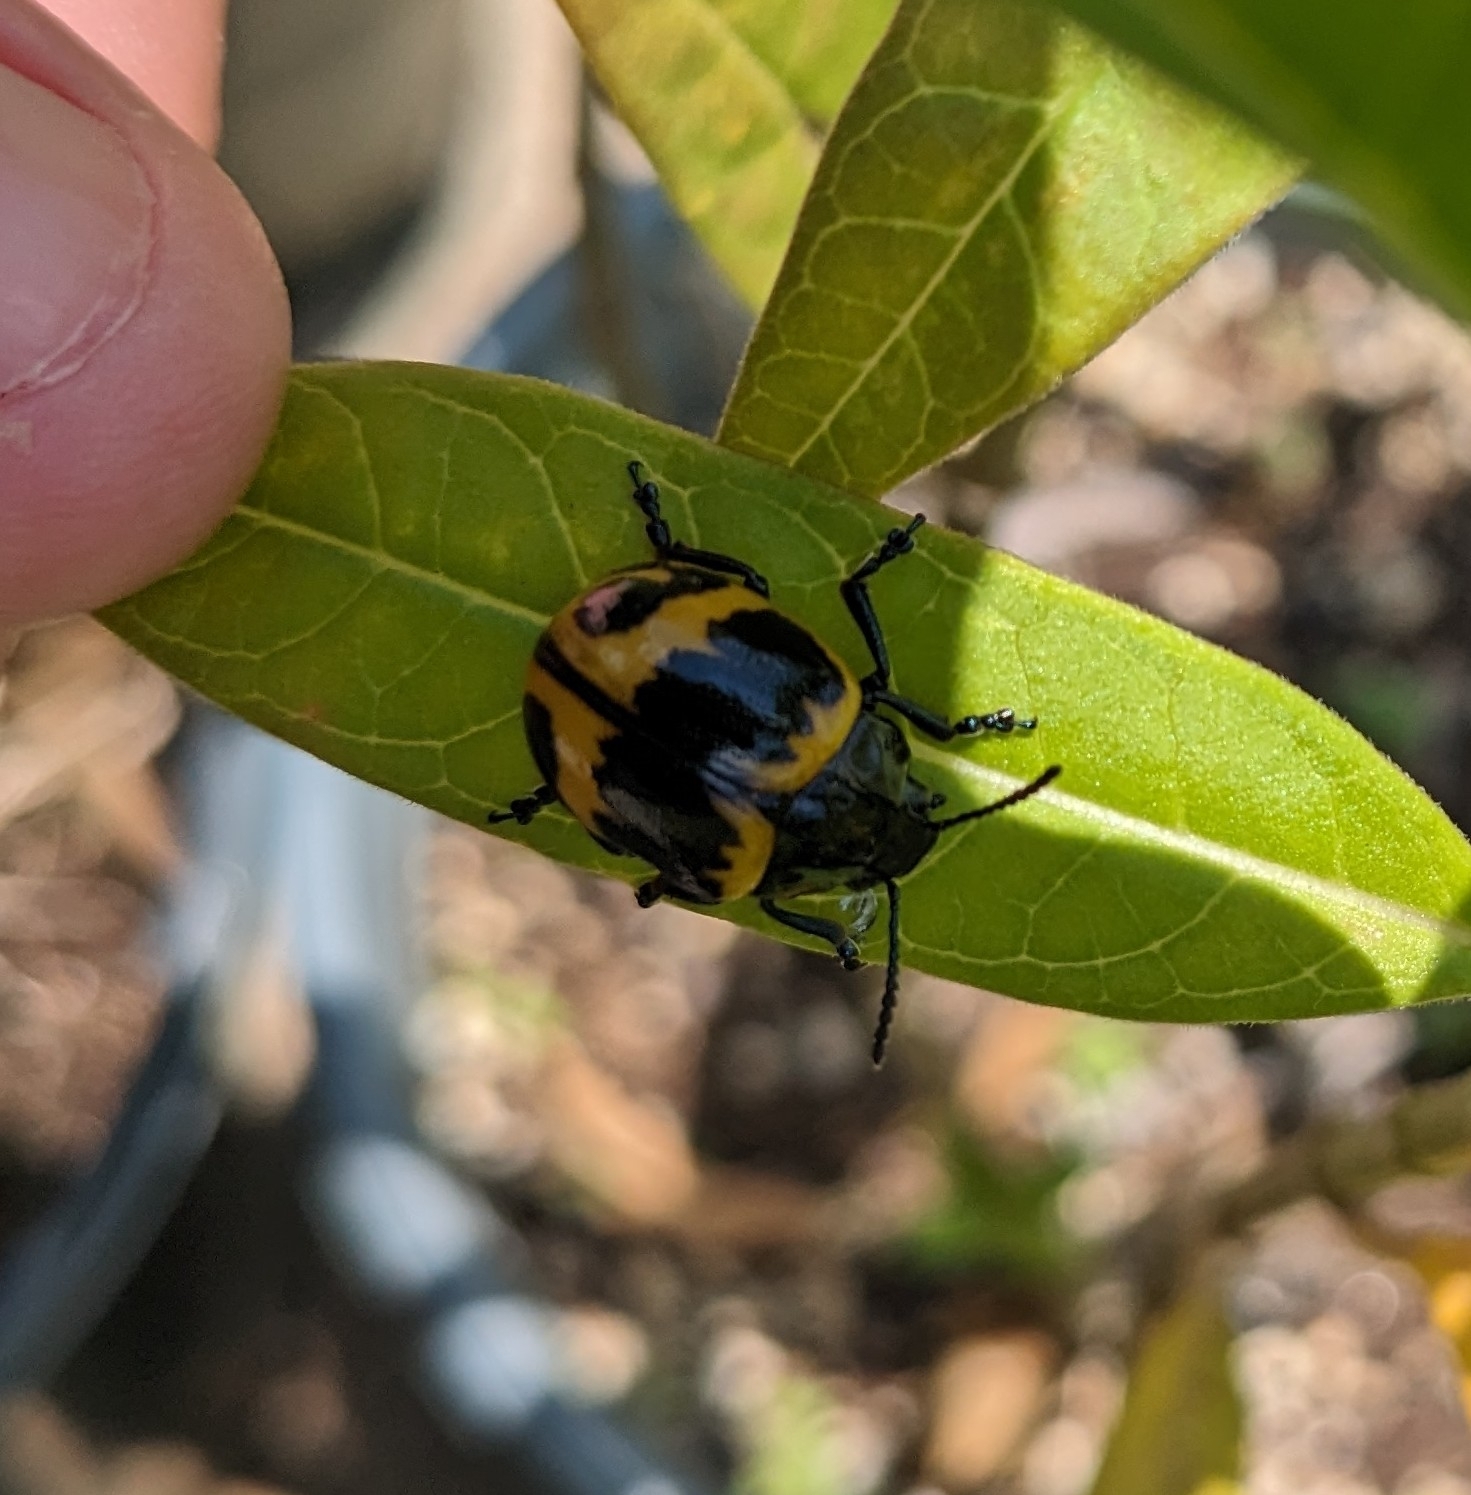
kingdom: Animalia
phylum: Arthropoda
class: Insecta
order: Coleoptera
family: Chrysomelidae
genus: Labidomera
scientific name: Labidomera clivicollis
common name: Swamp milkweed leaf beetle
